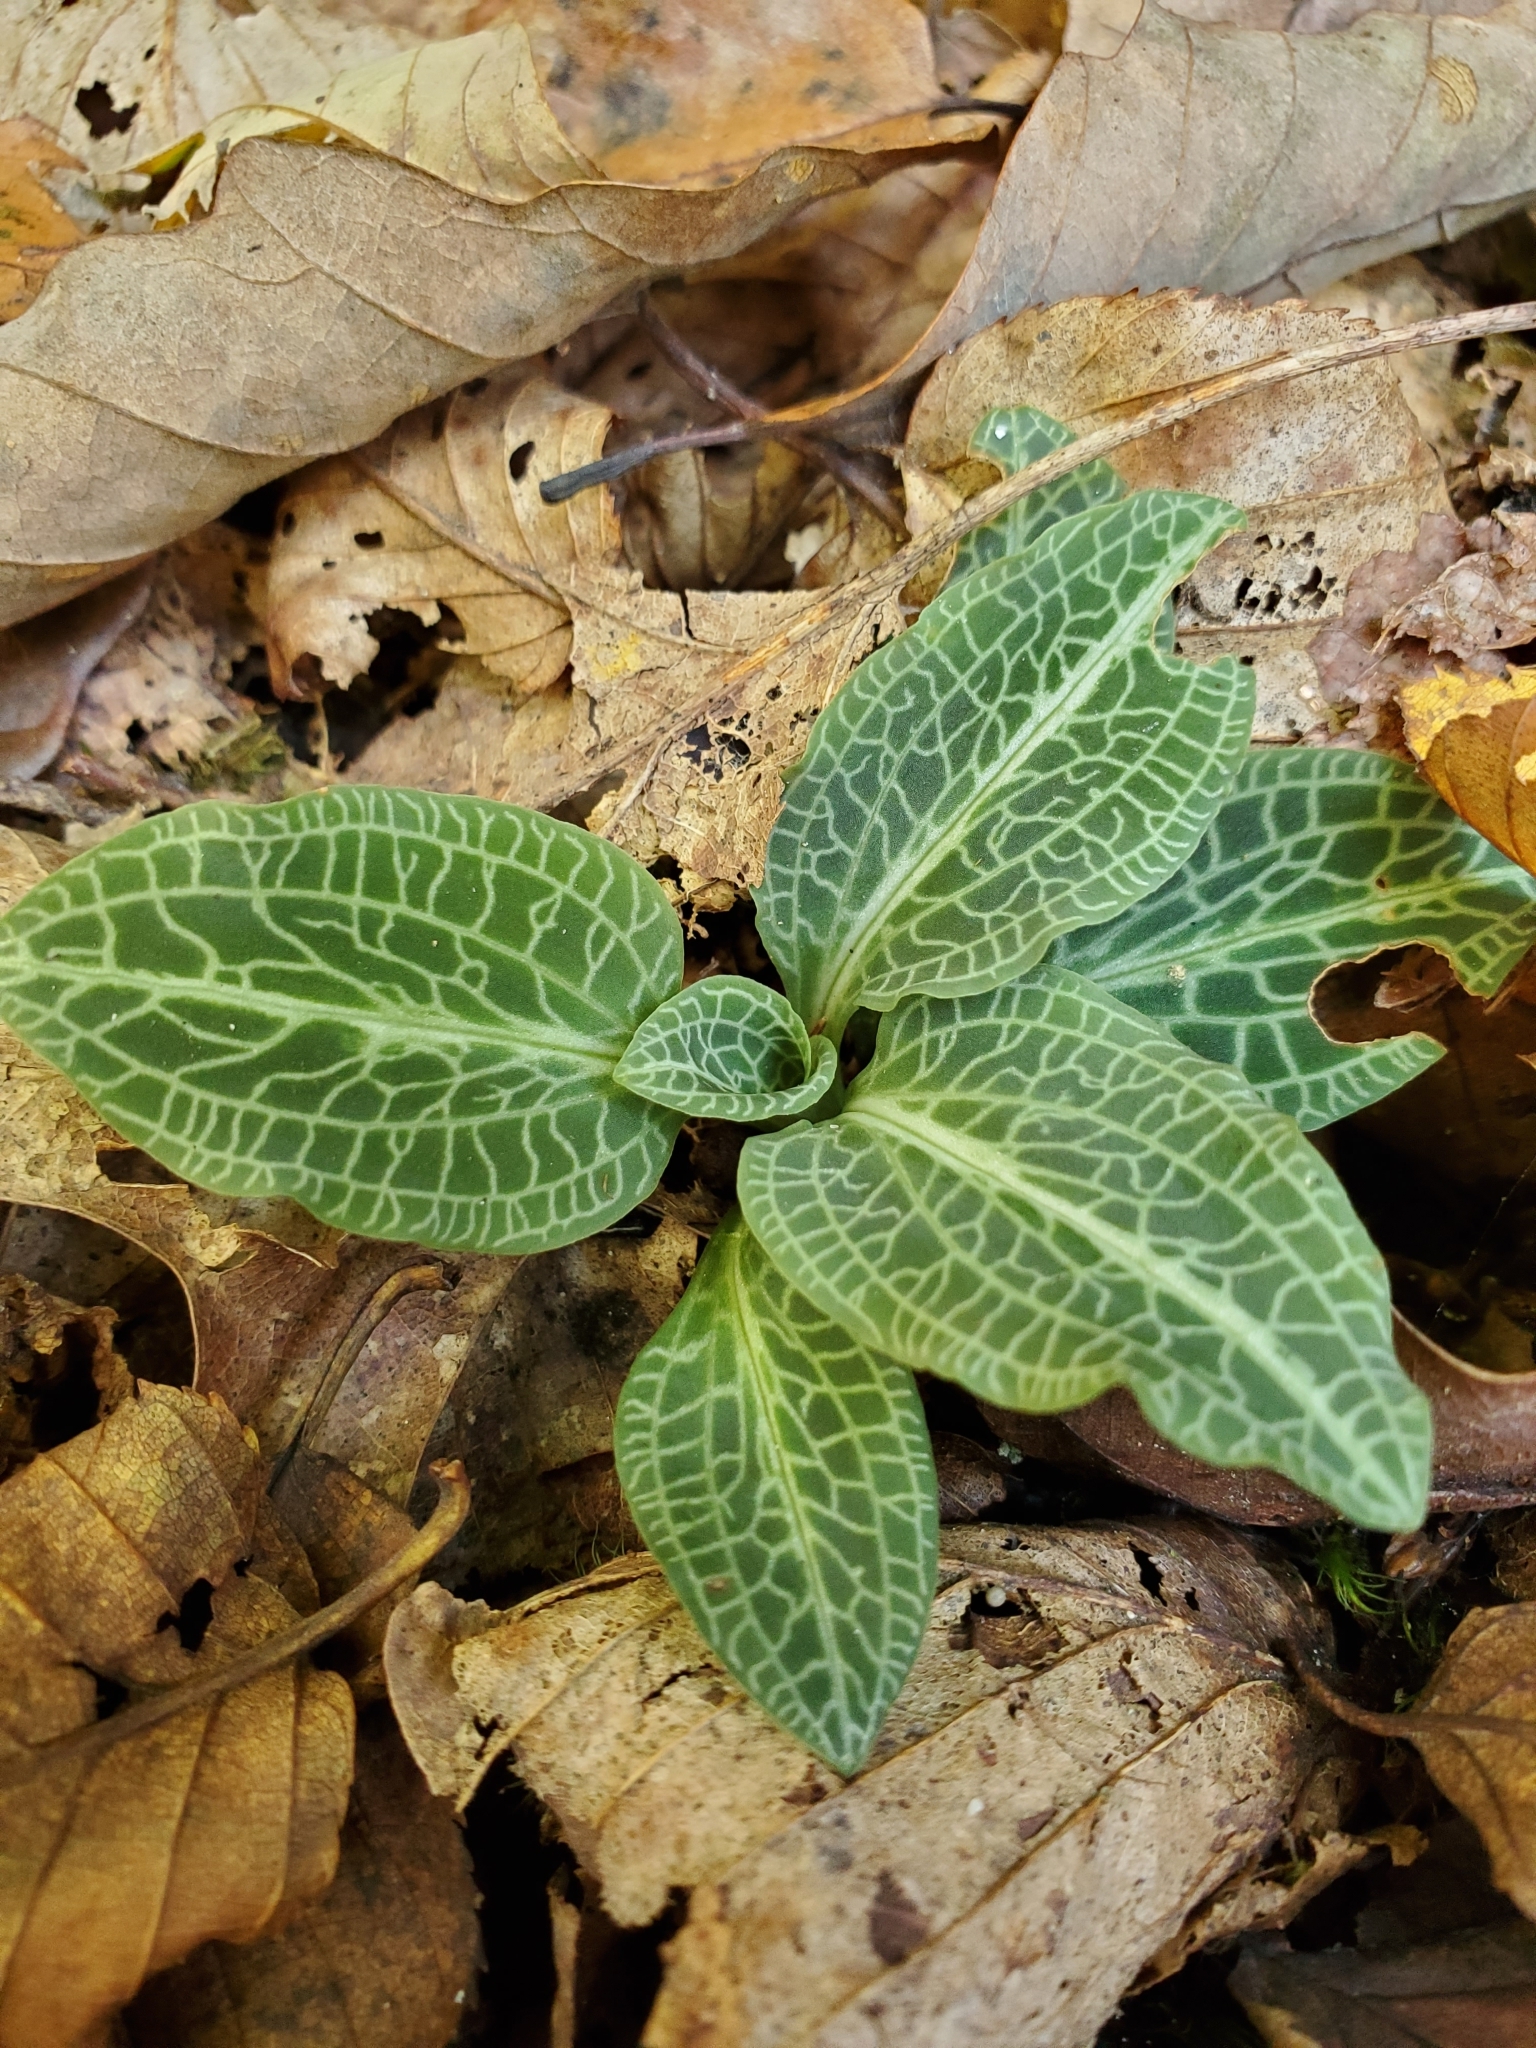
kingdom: Plantae
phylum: Tracheophyta
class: Liliopsida
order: Asparagales
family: Orchidaceae
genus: Goodyera
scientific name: Goodyera pubescens
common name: Downy rattlesnake-plantain
